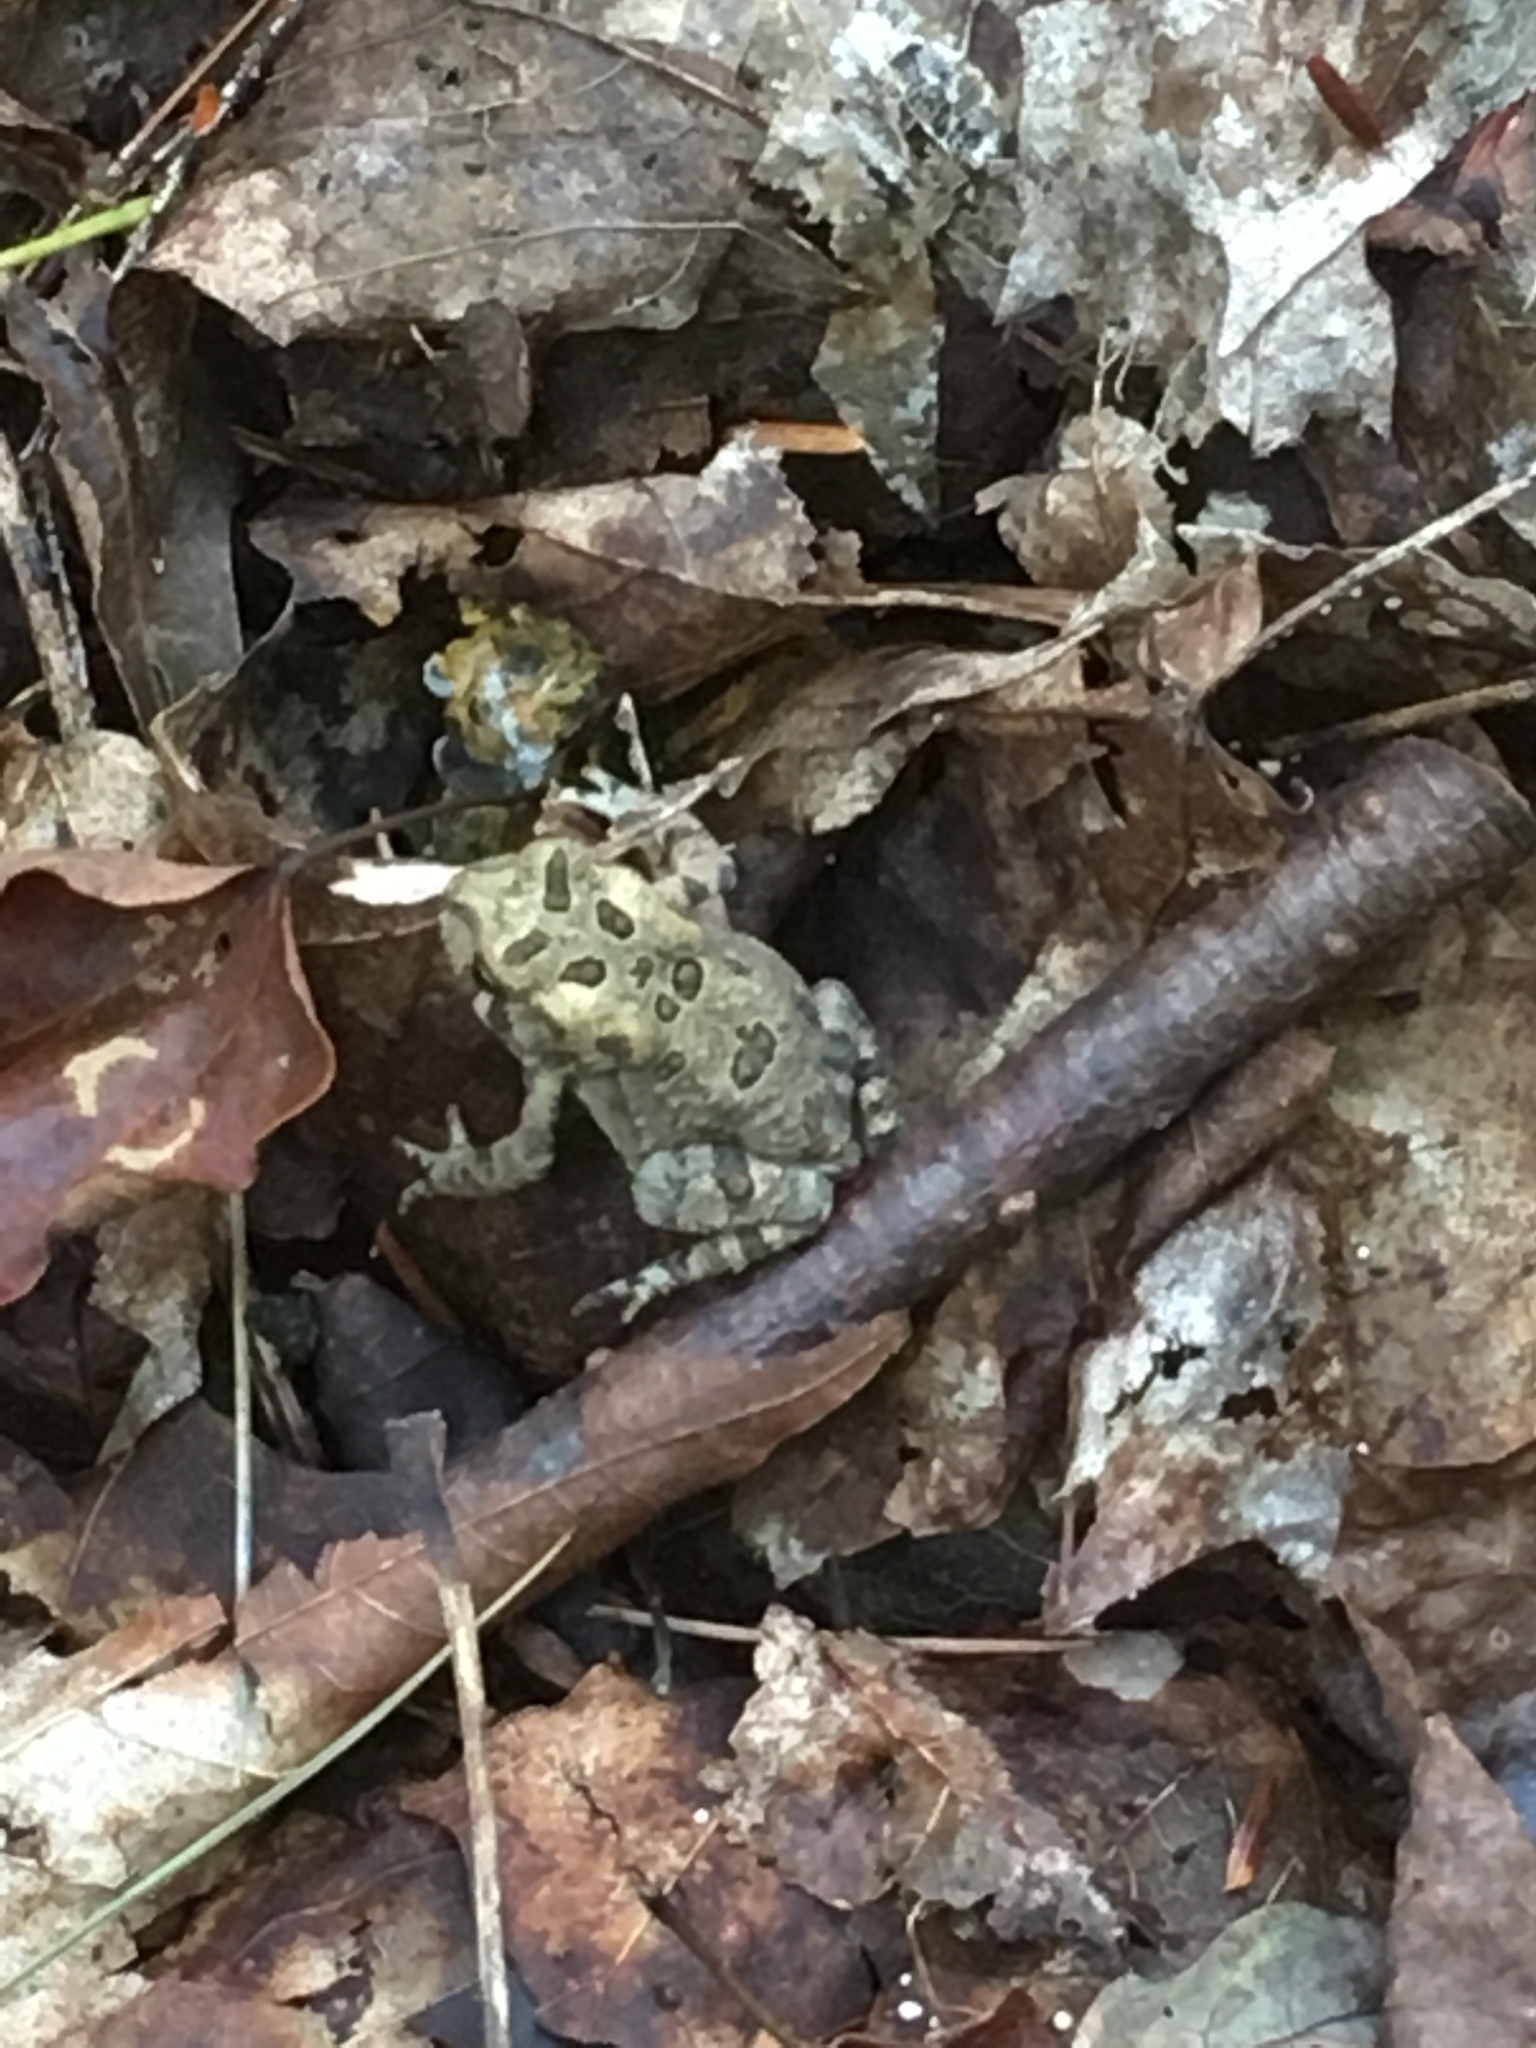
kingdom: Animalia
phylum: Chordata
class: Amphibia
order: Anura
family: Bufonidae
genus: Anaxyrus
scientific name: Anaxyrus americanus
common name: American toad
